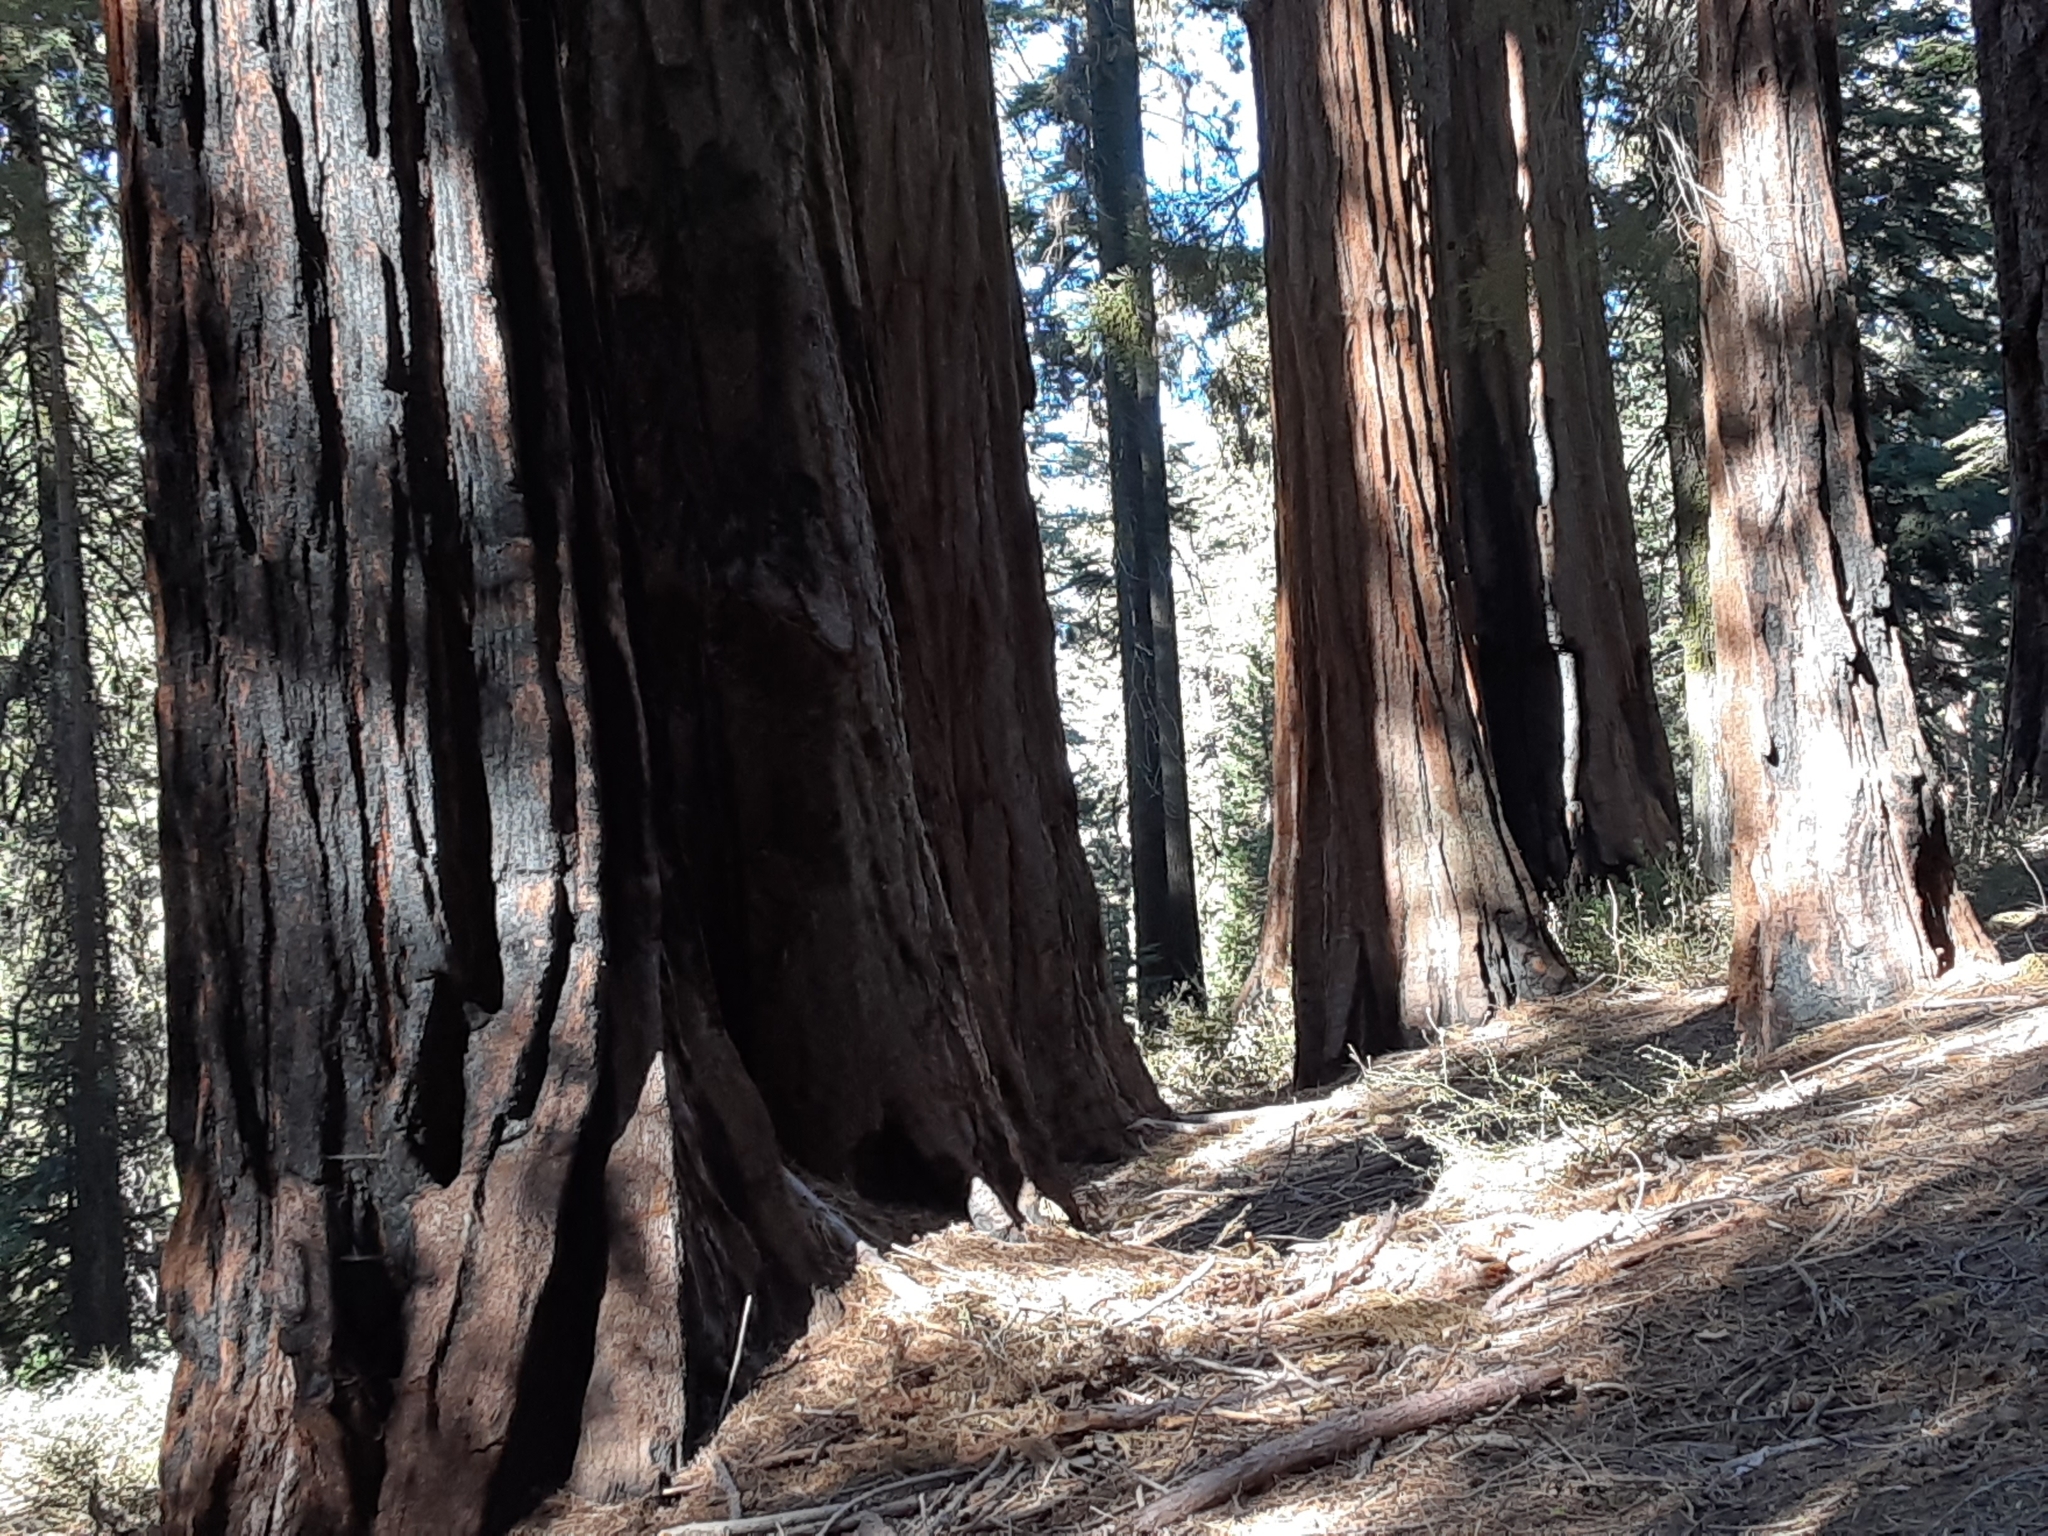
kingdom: Plantae
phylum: Tracheophyta
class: Pinopsida
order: Pinales
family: Cupressaceae
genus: Sequoiadendron
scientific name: Sequoiadendron giganteum
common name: Wellingtonia
